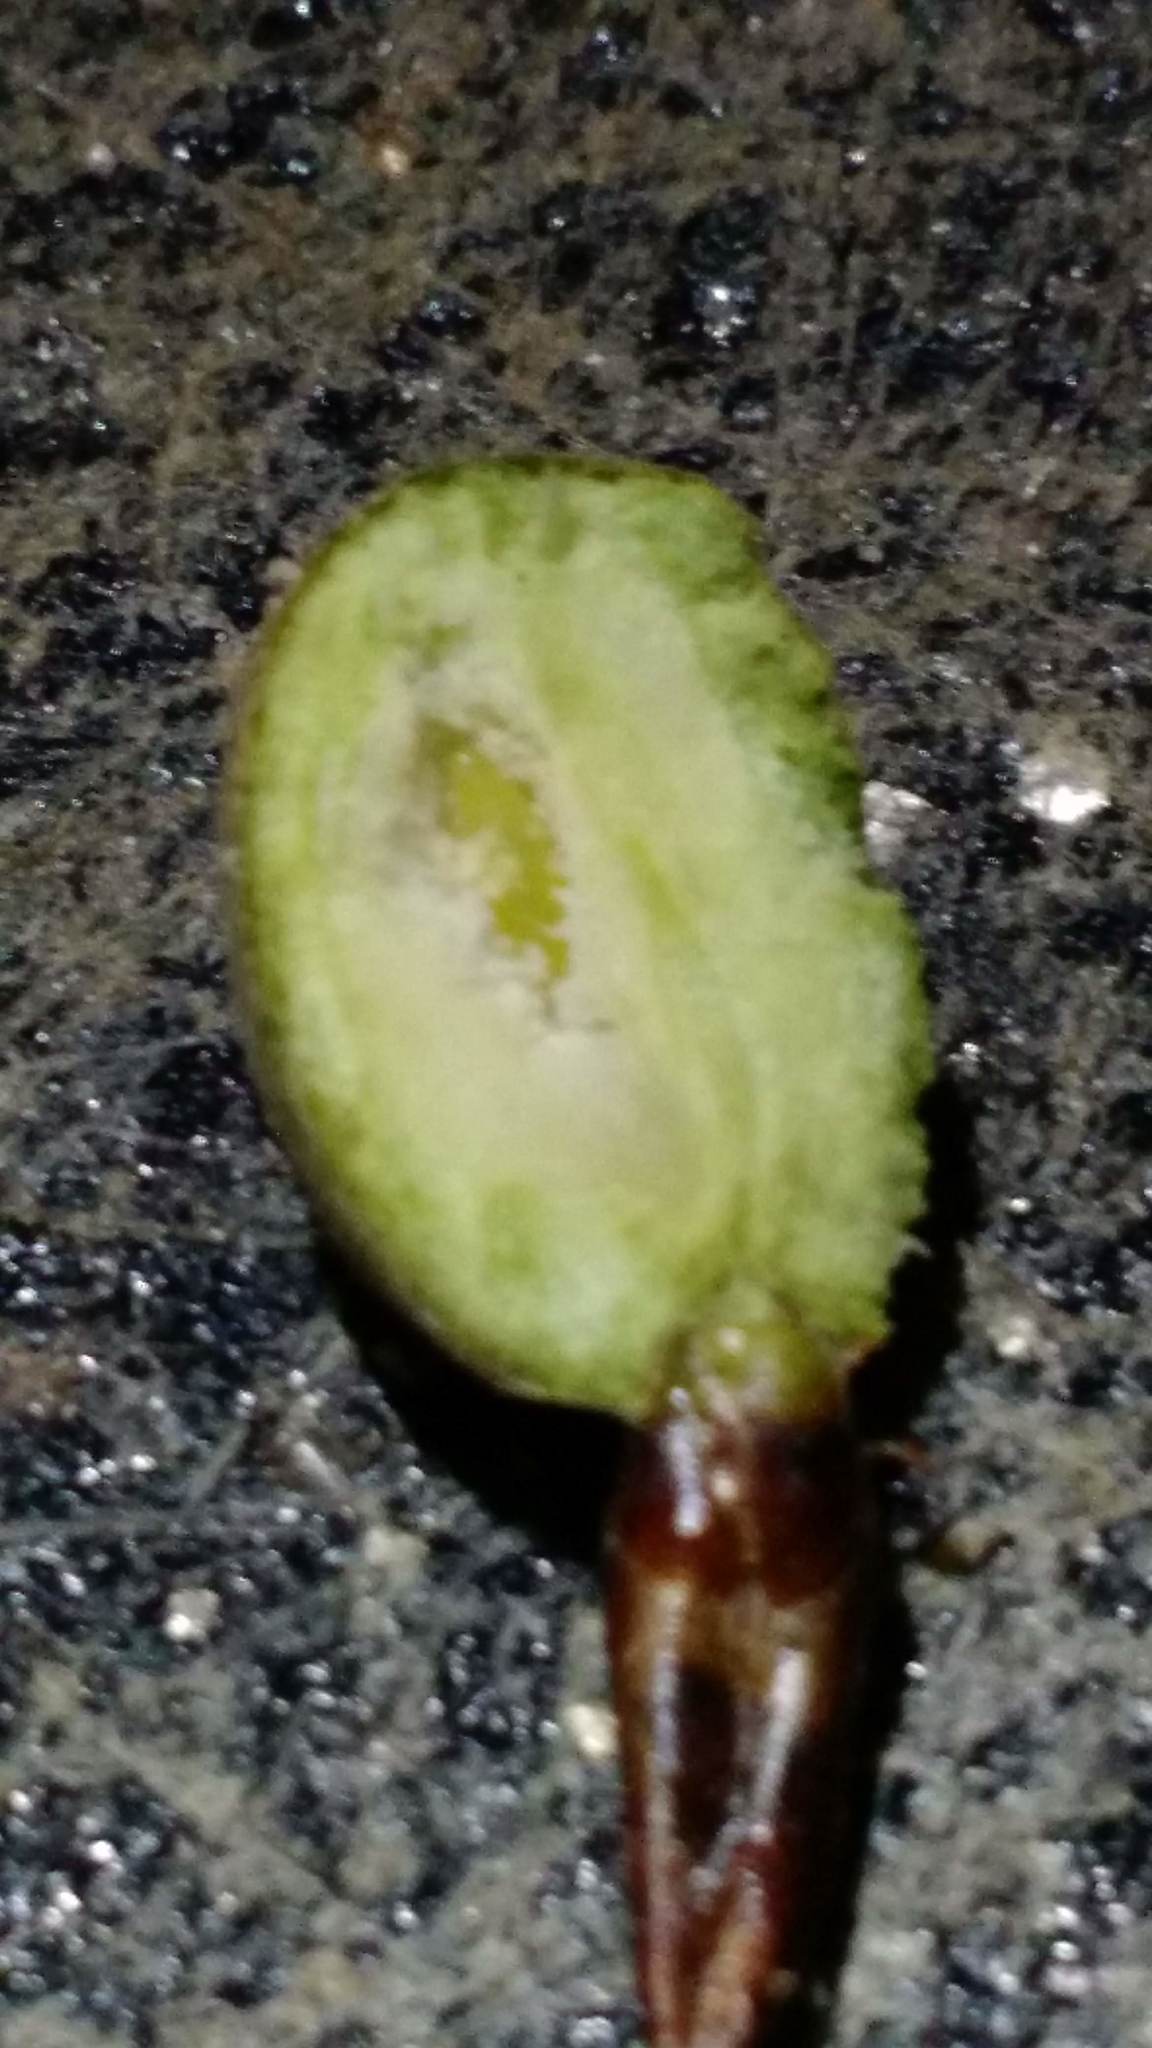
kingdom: Animalia
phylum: Arthropoda
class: Insecta
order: Diptera
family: Agromyzidae
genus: Euhexomyza
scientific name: Euhexomyza schineri
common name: Poplar twiggall fly
